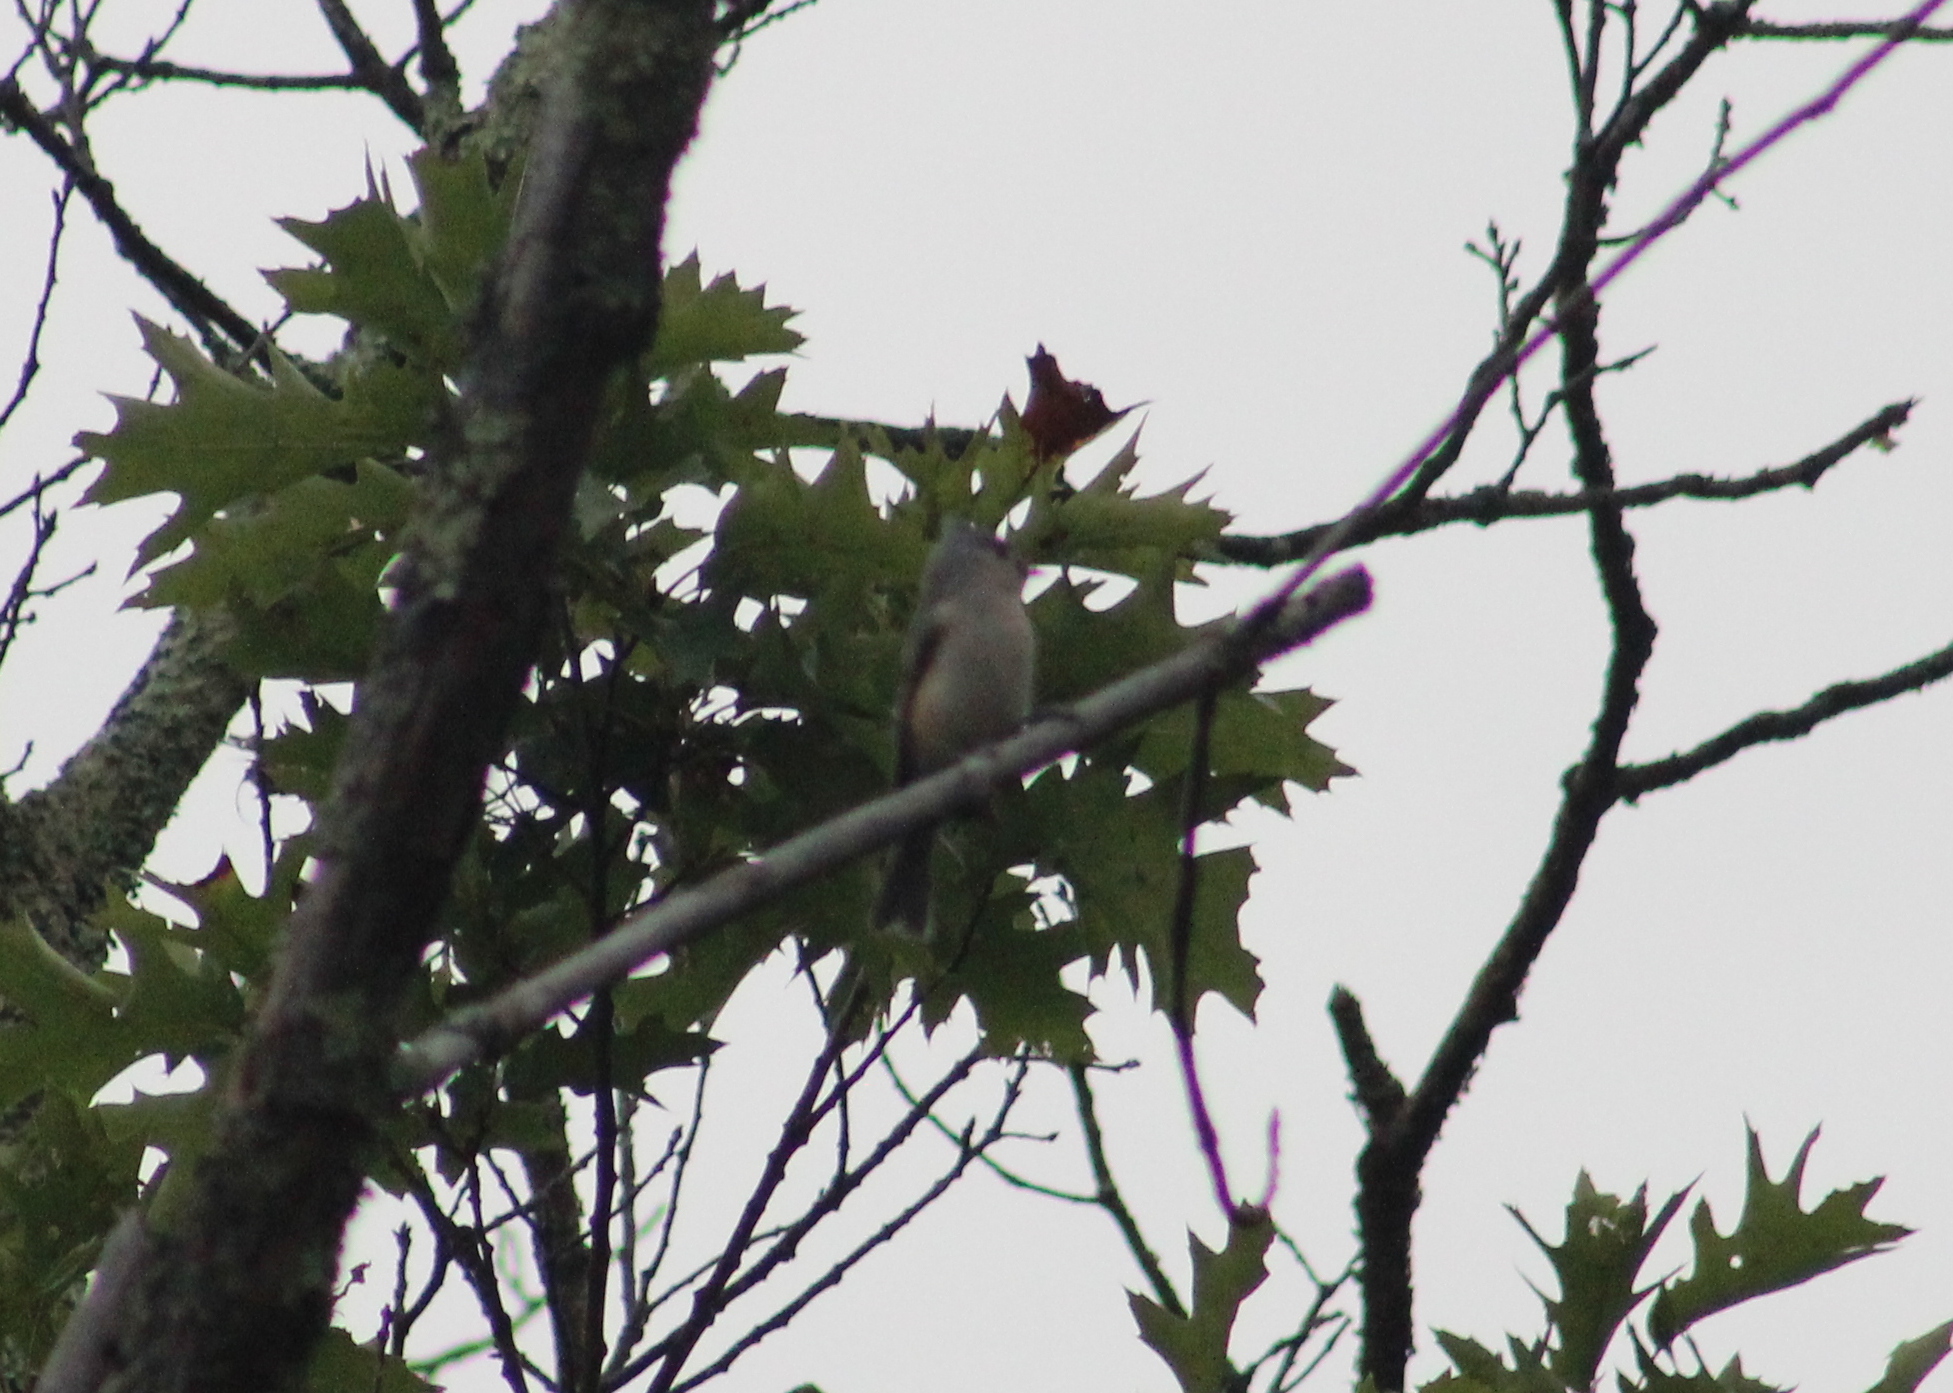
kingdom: Animalia
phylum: Chordata
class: Aves
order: Passeriformes
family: Paridae
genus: Baeolophus
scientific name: Baeolophus bicolor
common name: Tufted titmouse
